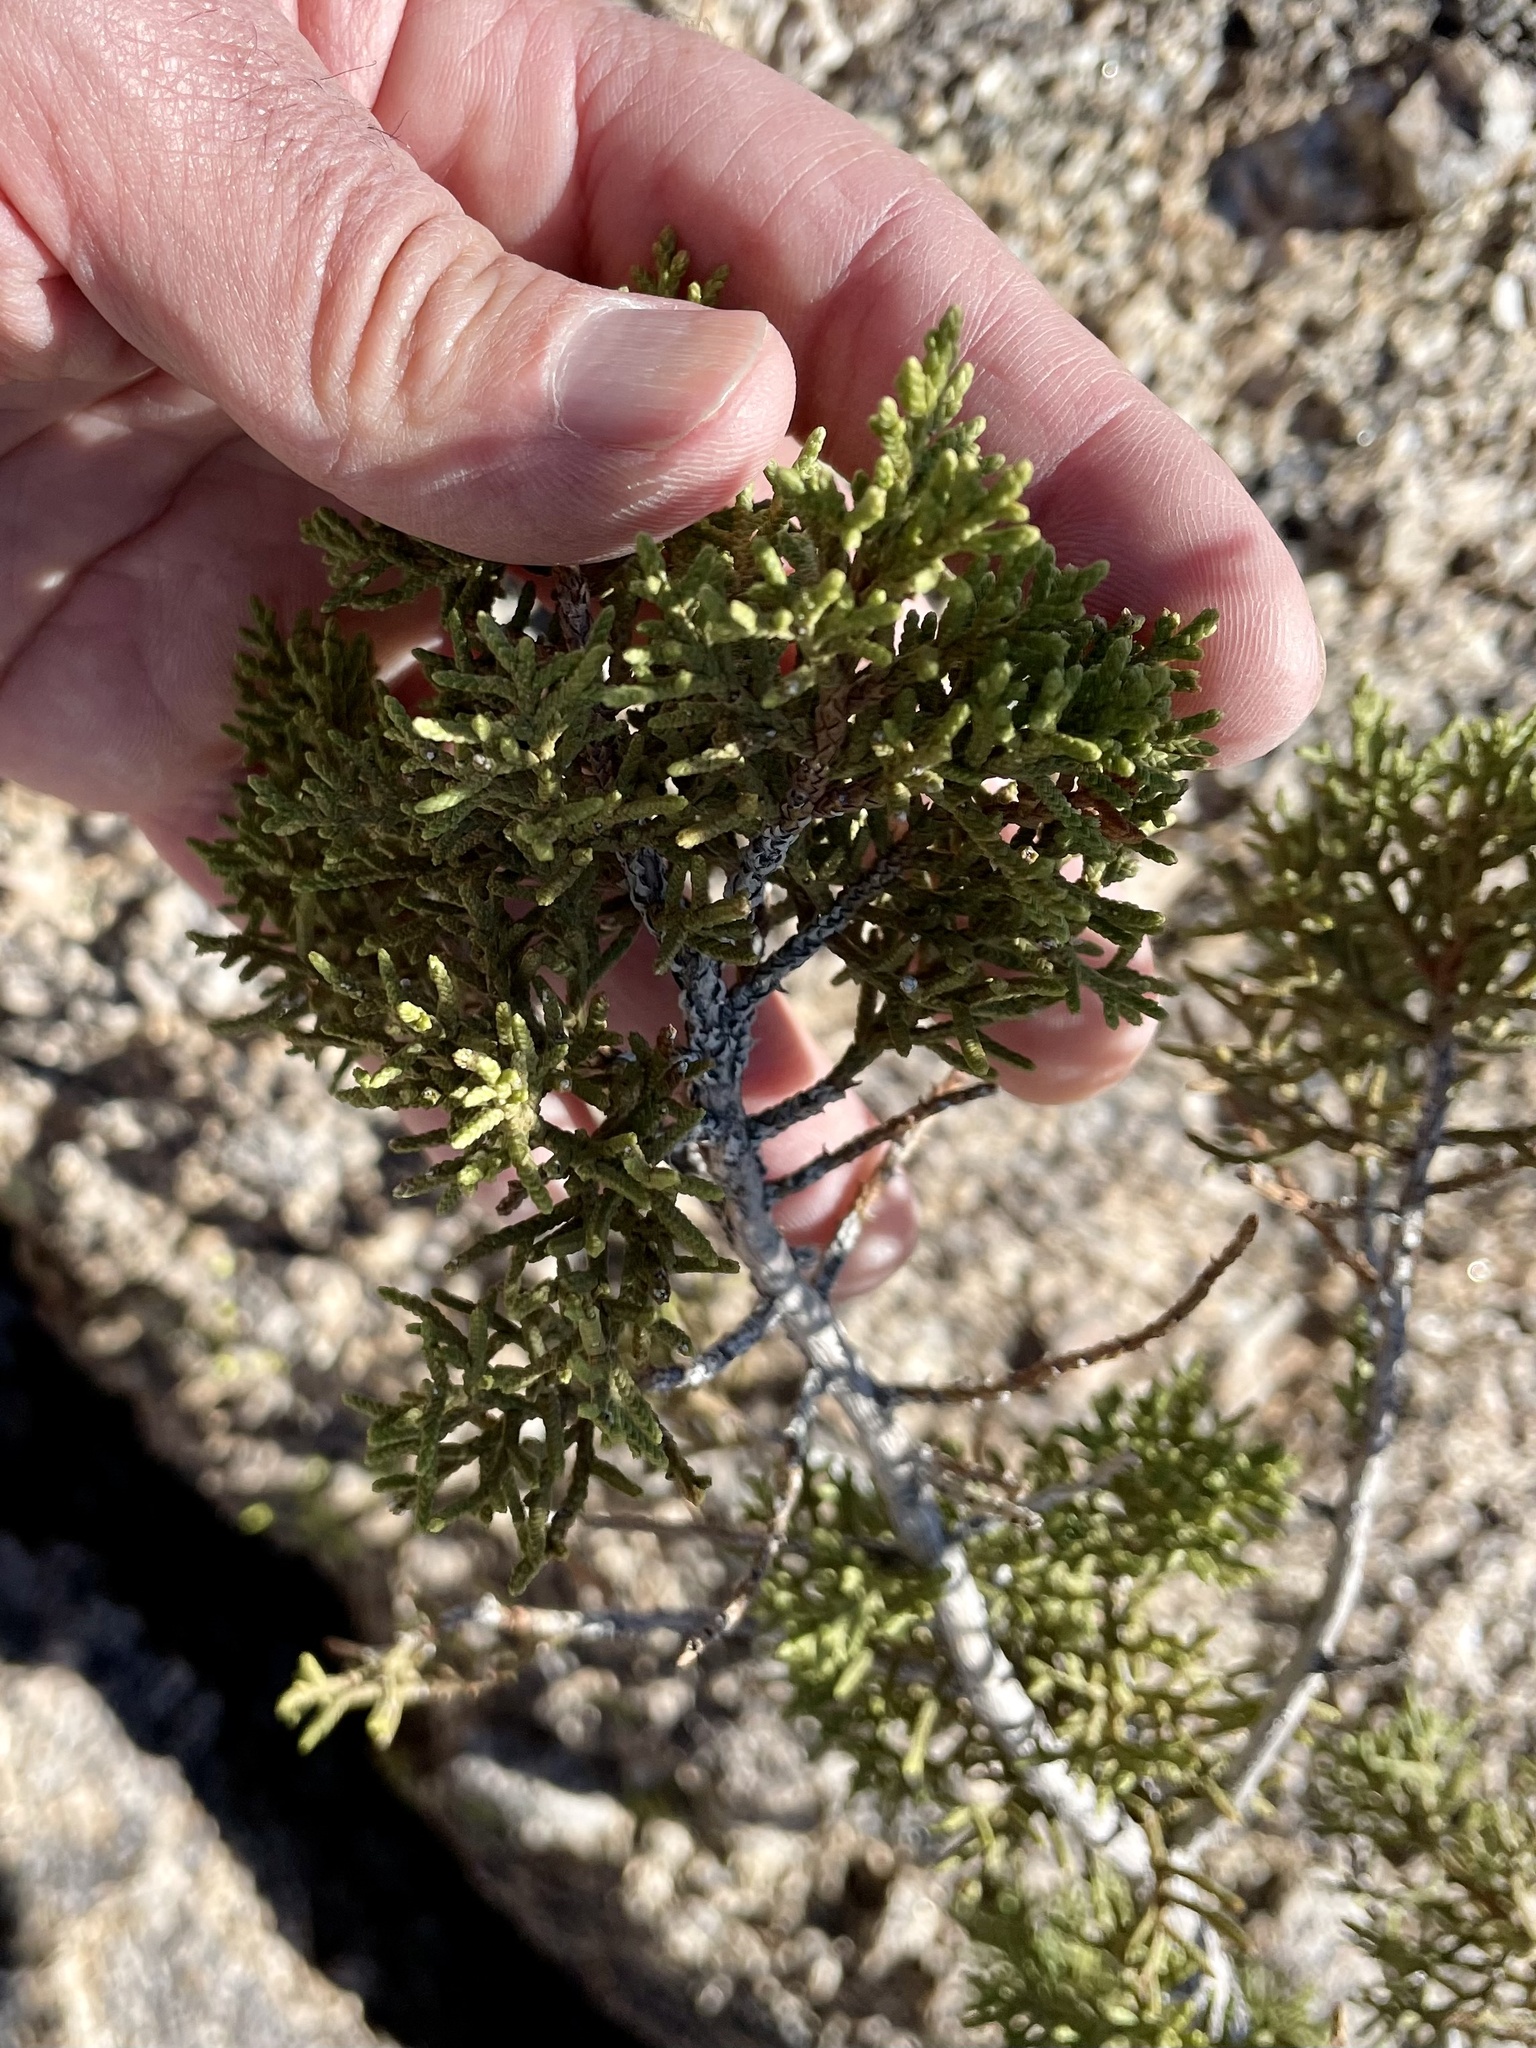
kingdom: Plantae
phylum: Tracheophyta
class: Pinopsida
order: Pinales
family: Cupressaceae
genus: Juniperus
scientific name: Juniperus arizonica
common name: Arizona juniper
